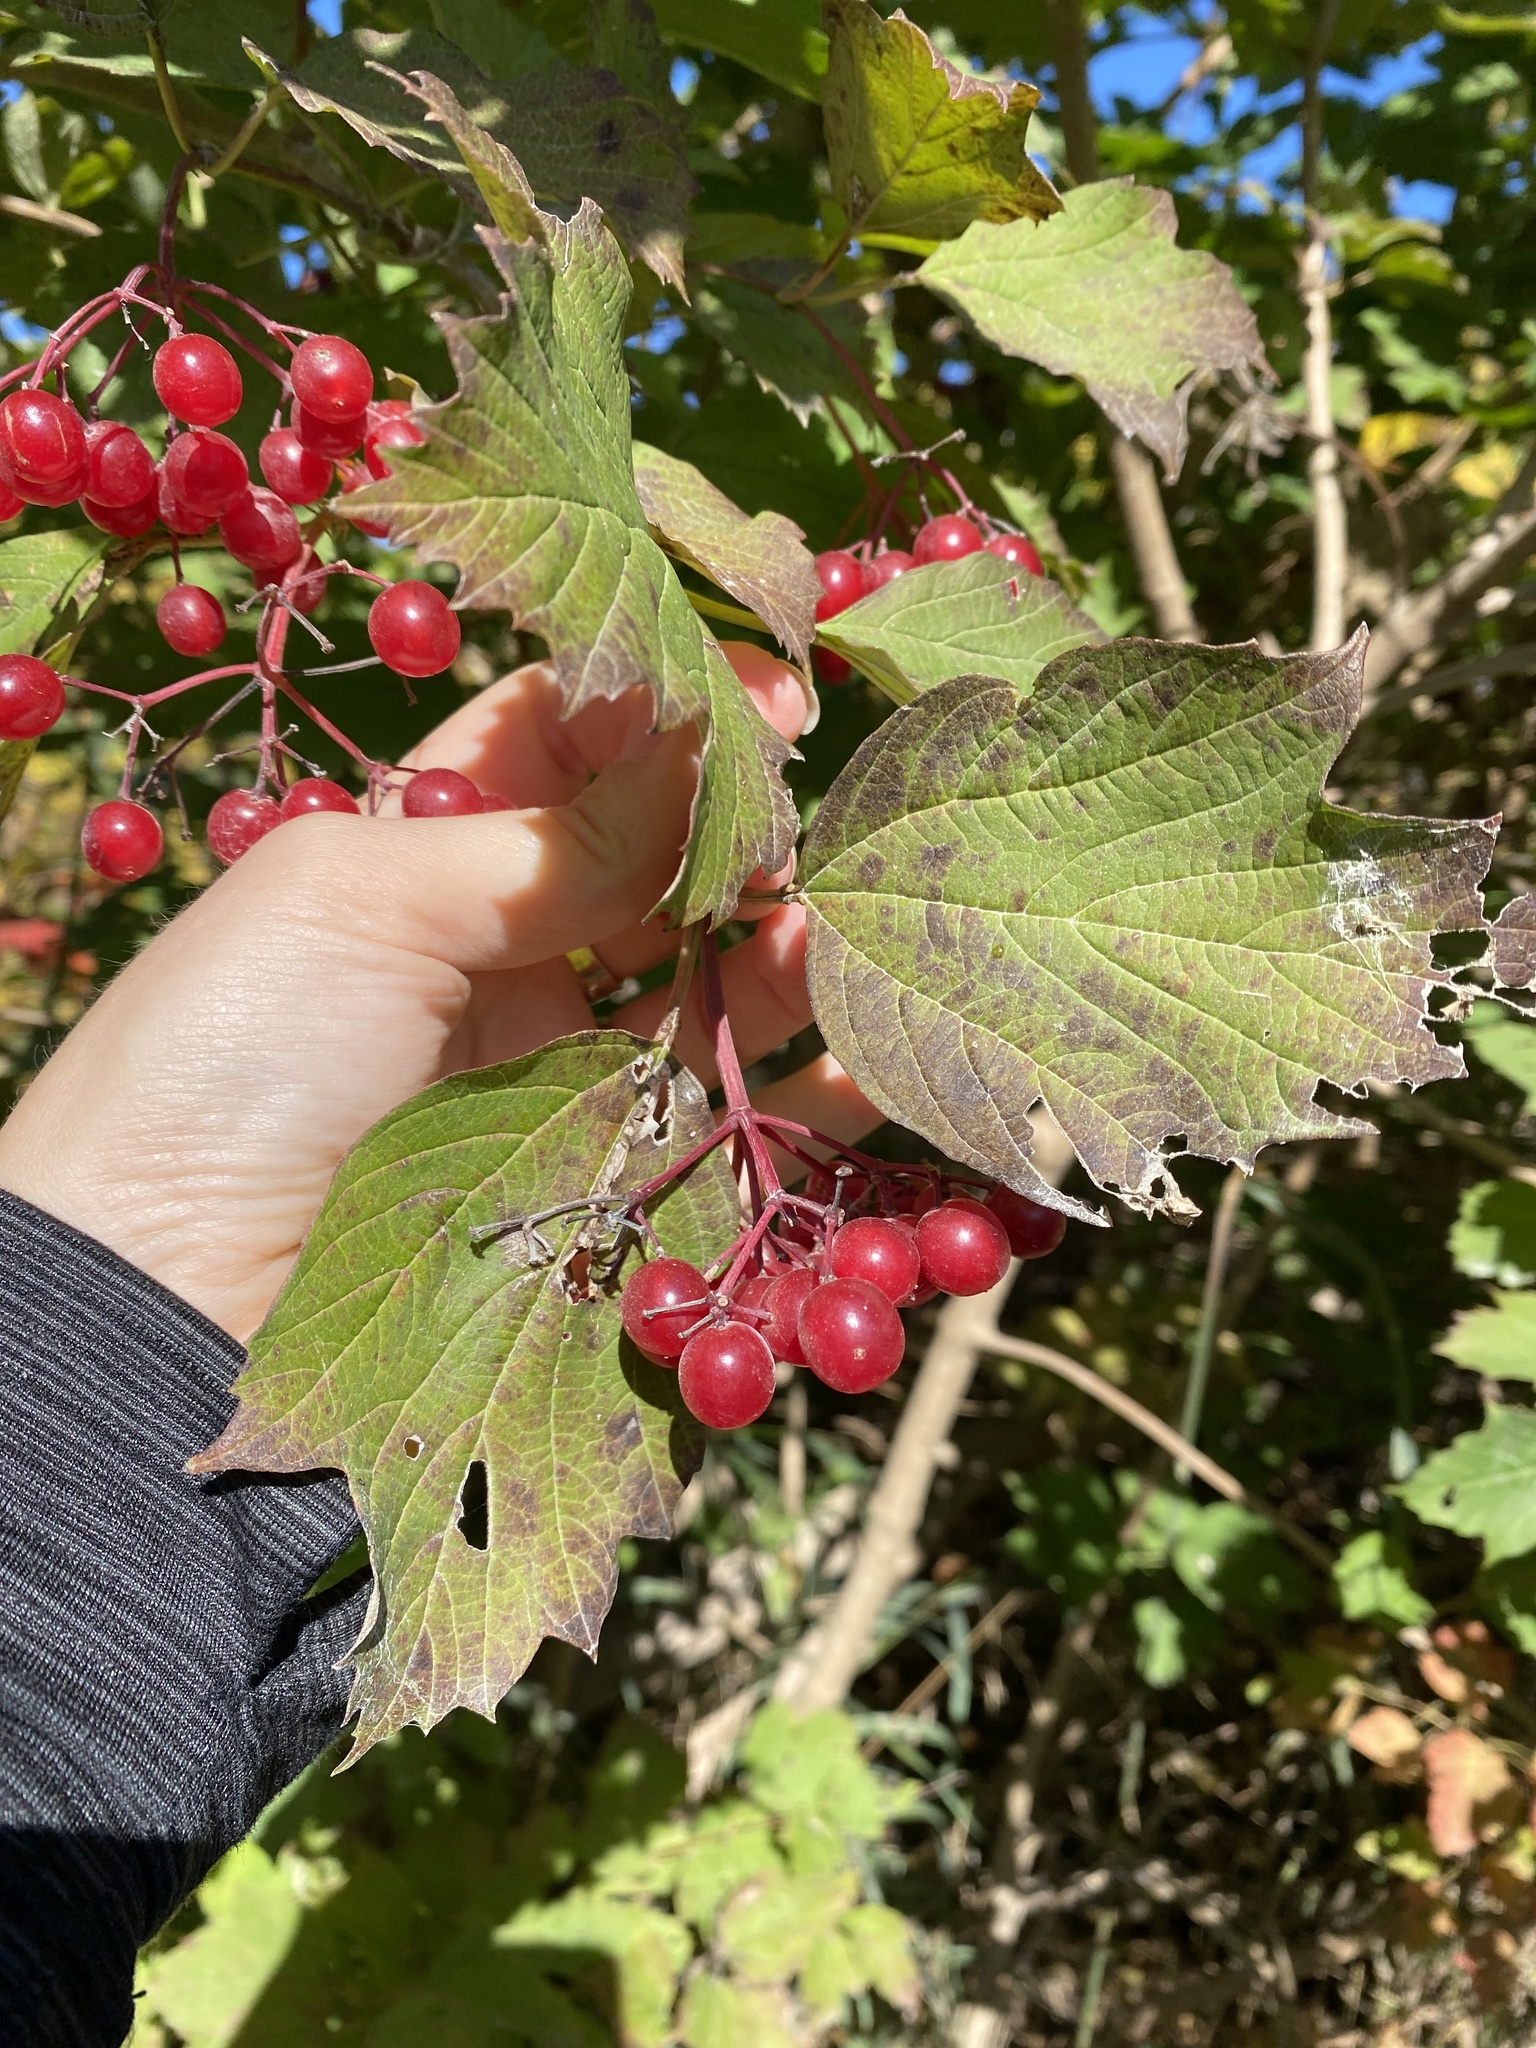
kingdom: Plantae
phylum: Tracheophyta
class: Magnoliopsida
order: Dipsacales
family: Viburnaceae
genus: Viburnum
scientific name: Viburnum opulus
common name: Guelder-rose
